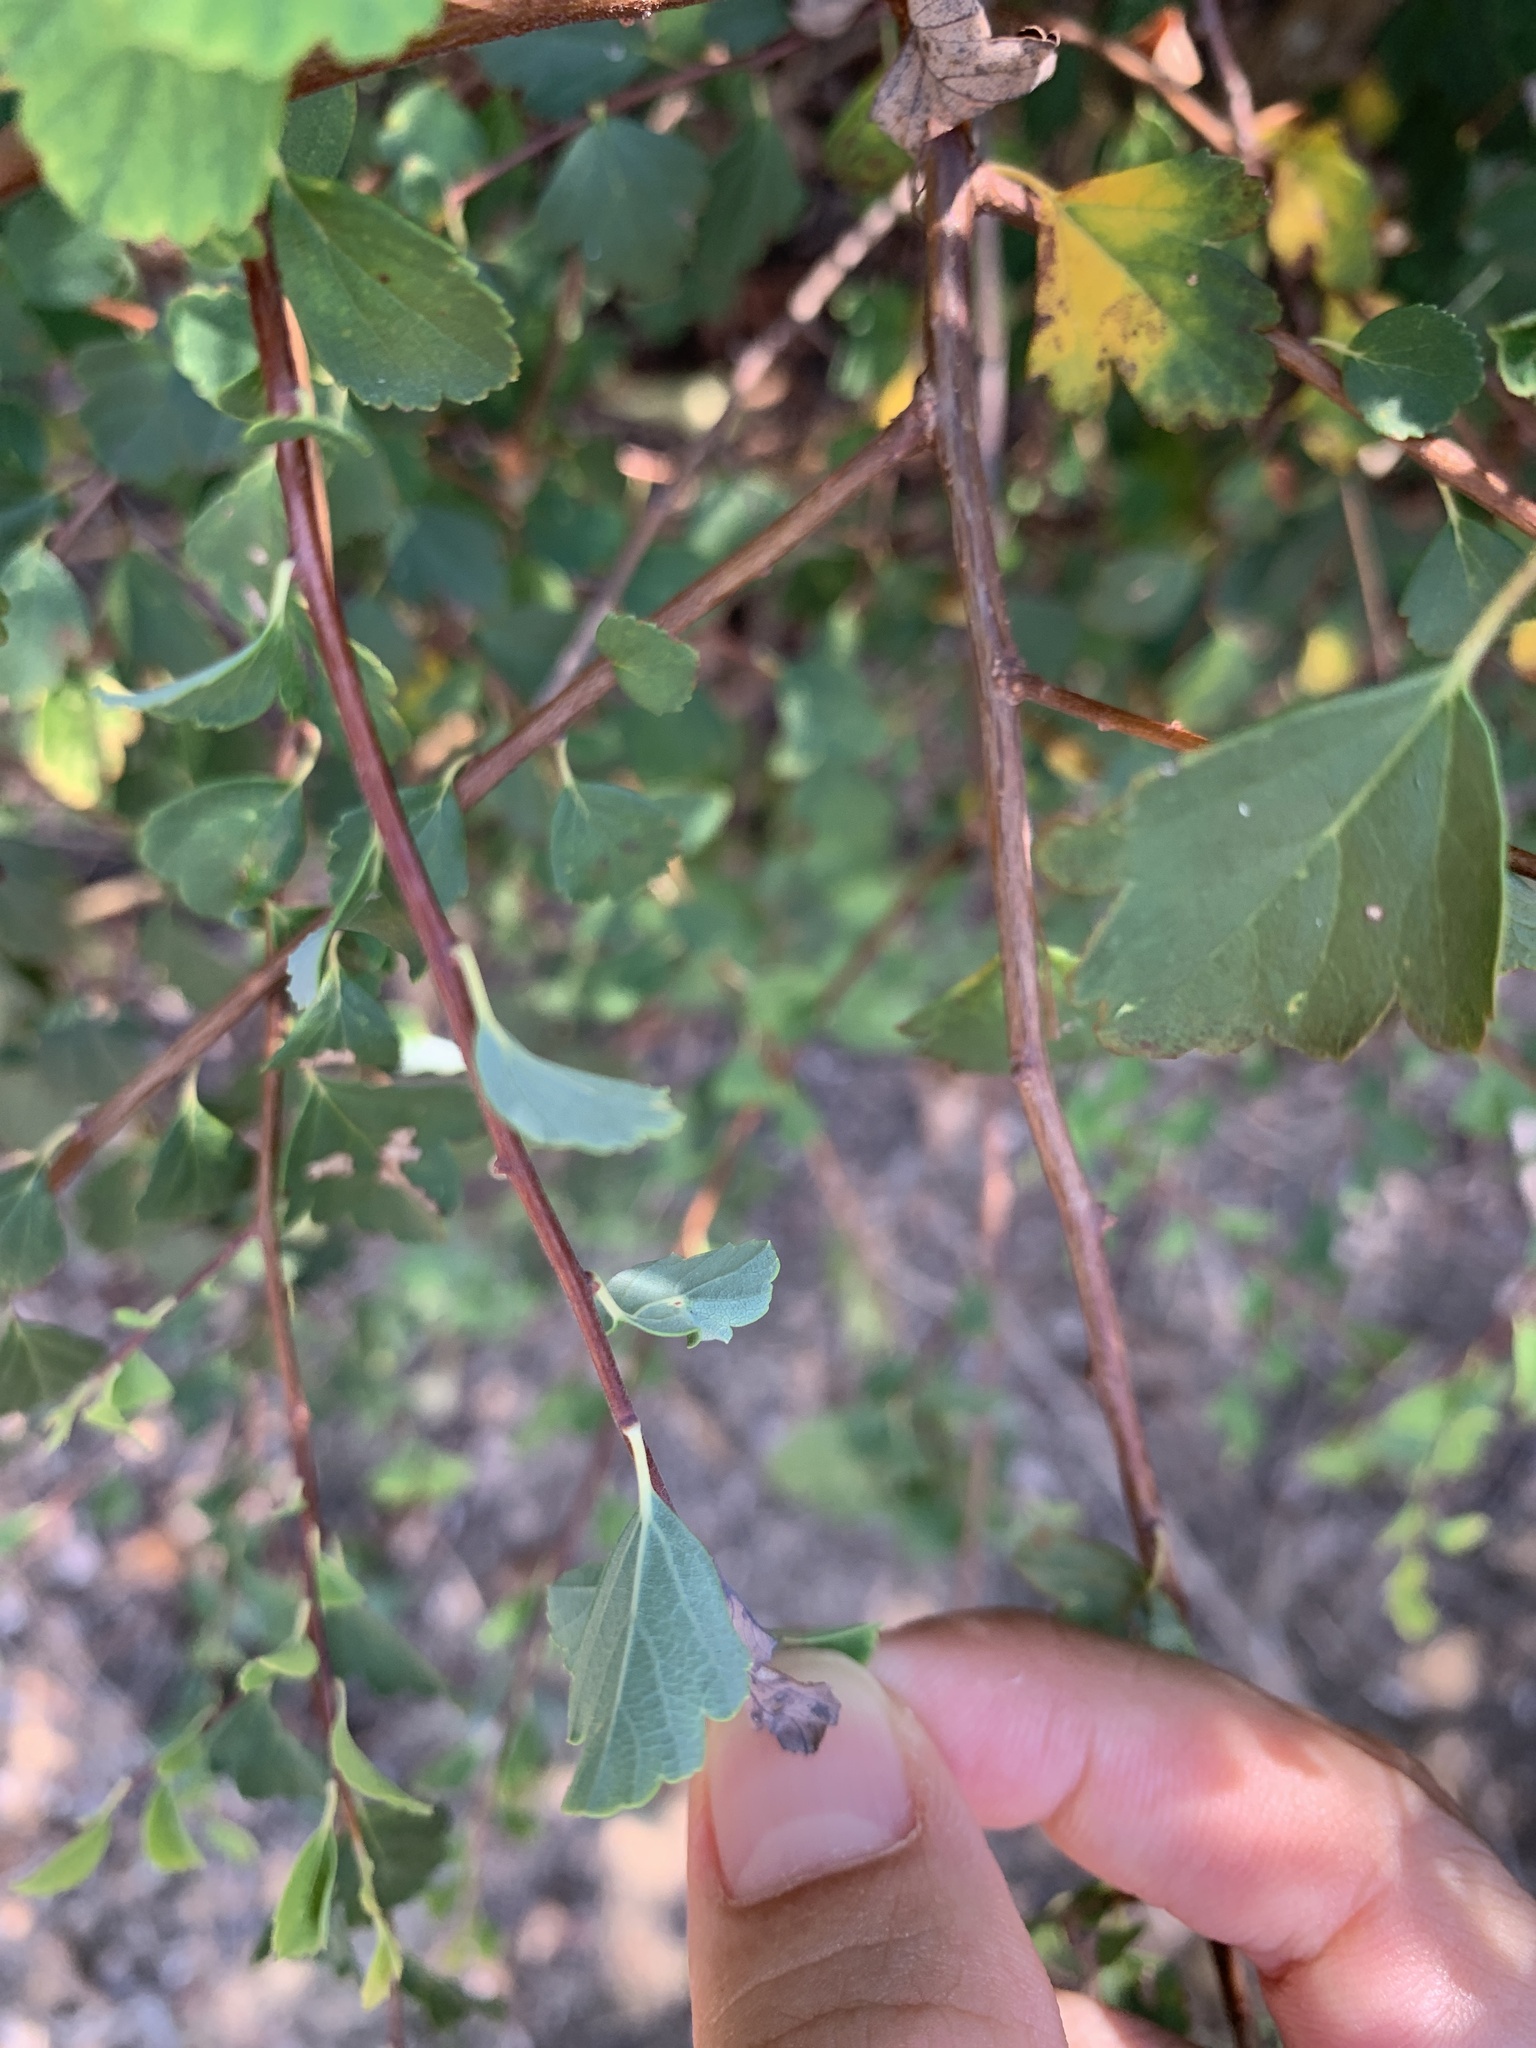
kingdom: Plantae
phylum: Tracheophyta
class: Magnoliopsida
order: Rosales
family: Rosaceae
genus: Spiraea
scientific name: Spiraea blumei
